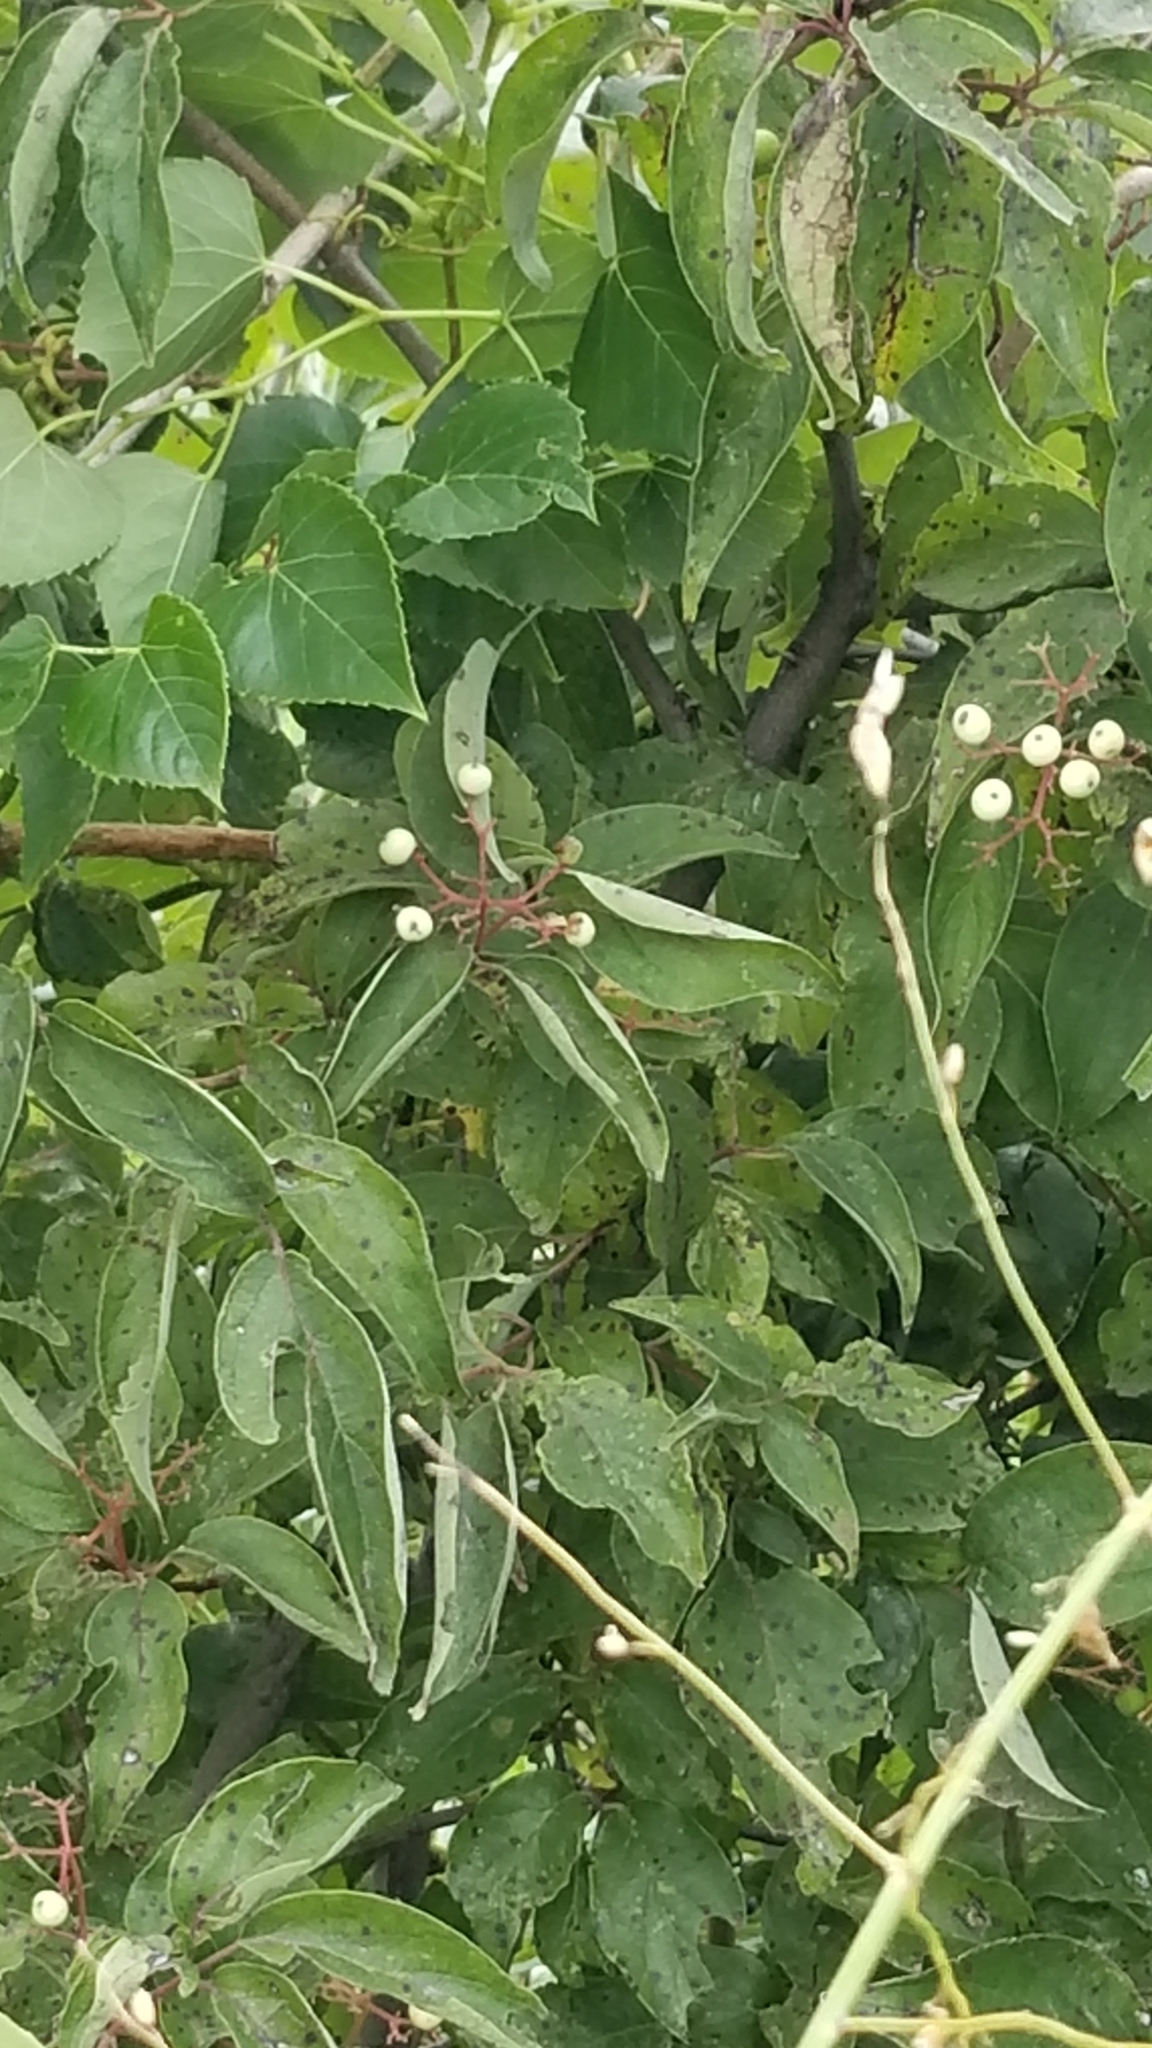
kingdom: Plantae
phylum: Tracheophyta
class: Magnoliopsida
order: Cornales
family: Cornaceae
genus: Cornus
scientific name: Cornus drummondii
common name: Rough-leaf dogwood
